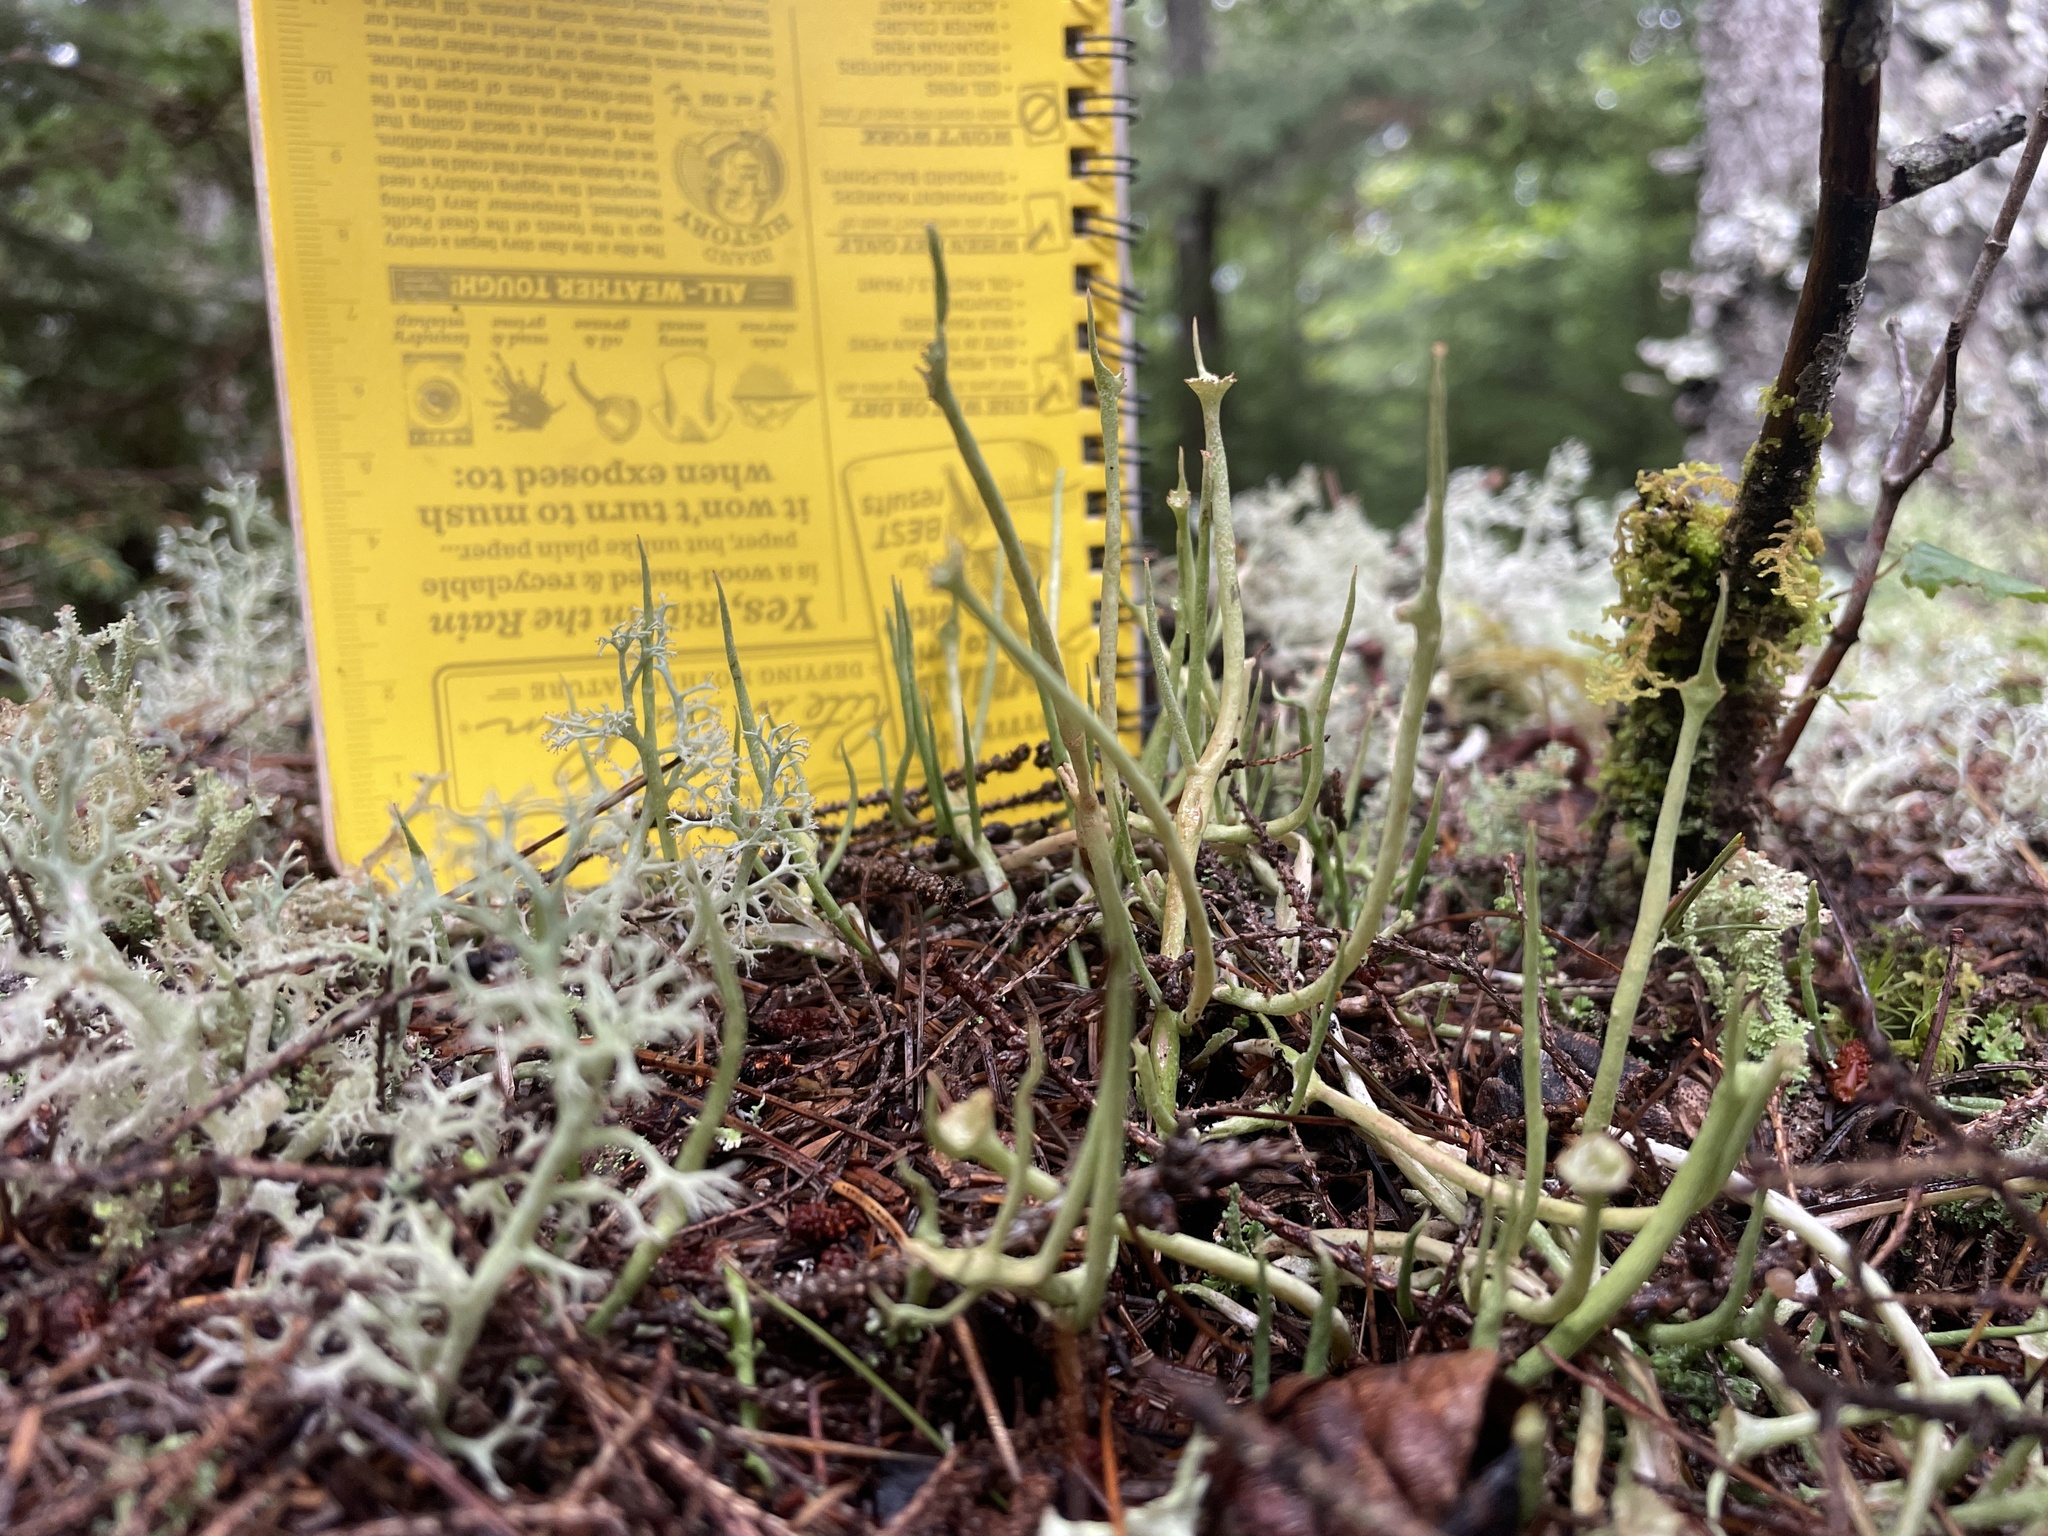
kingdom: Fungi
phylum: Ascomycota
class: Lecanoromycetes
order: Lecanorales
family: Cladoniaceae
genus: Cladonia
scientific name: Cladonia maxima
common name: Giant cladonia lichen
